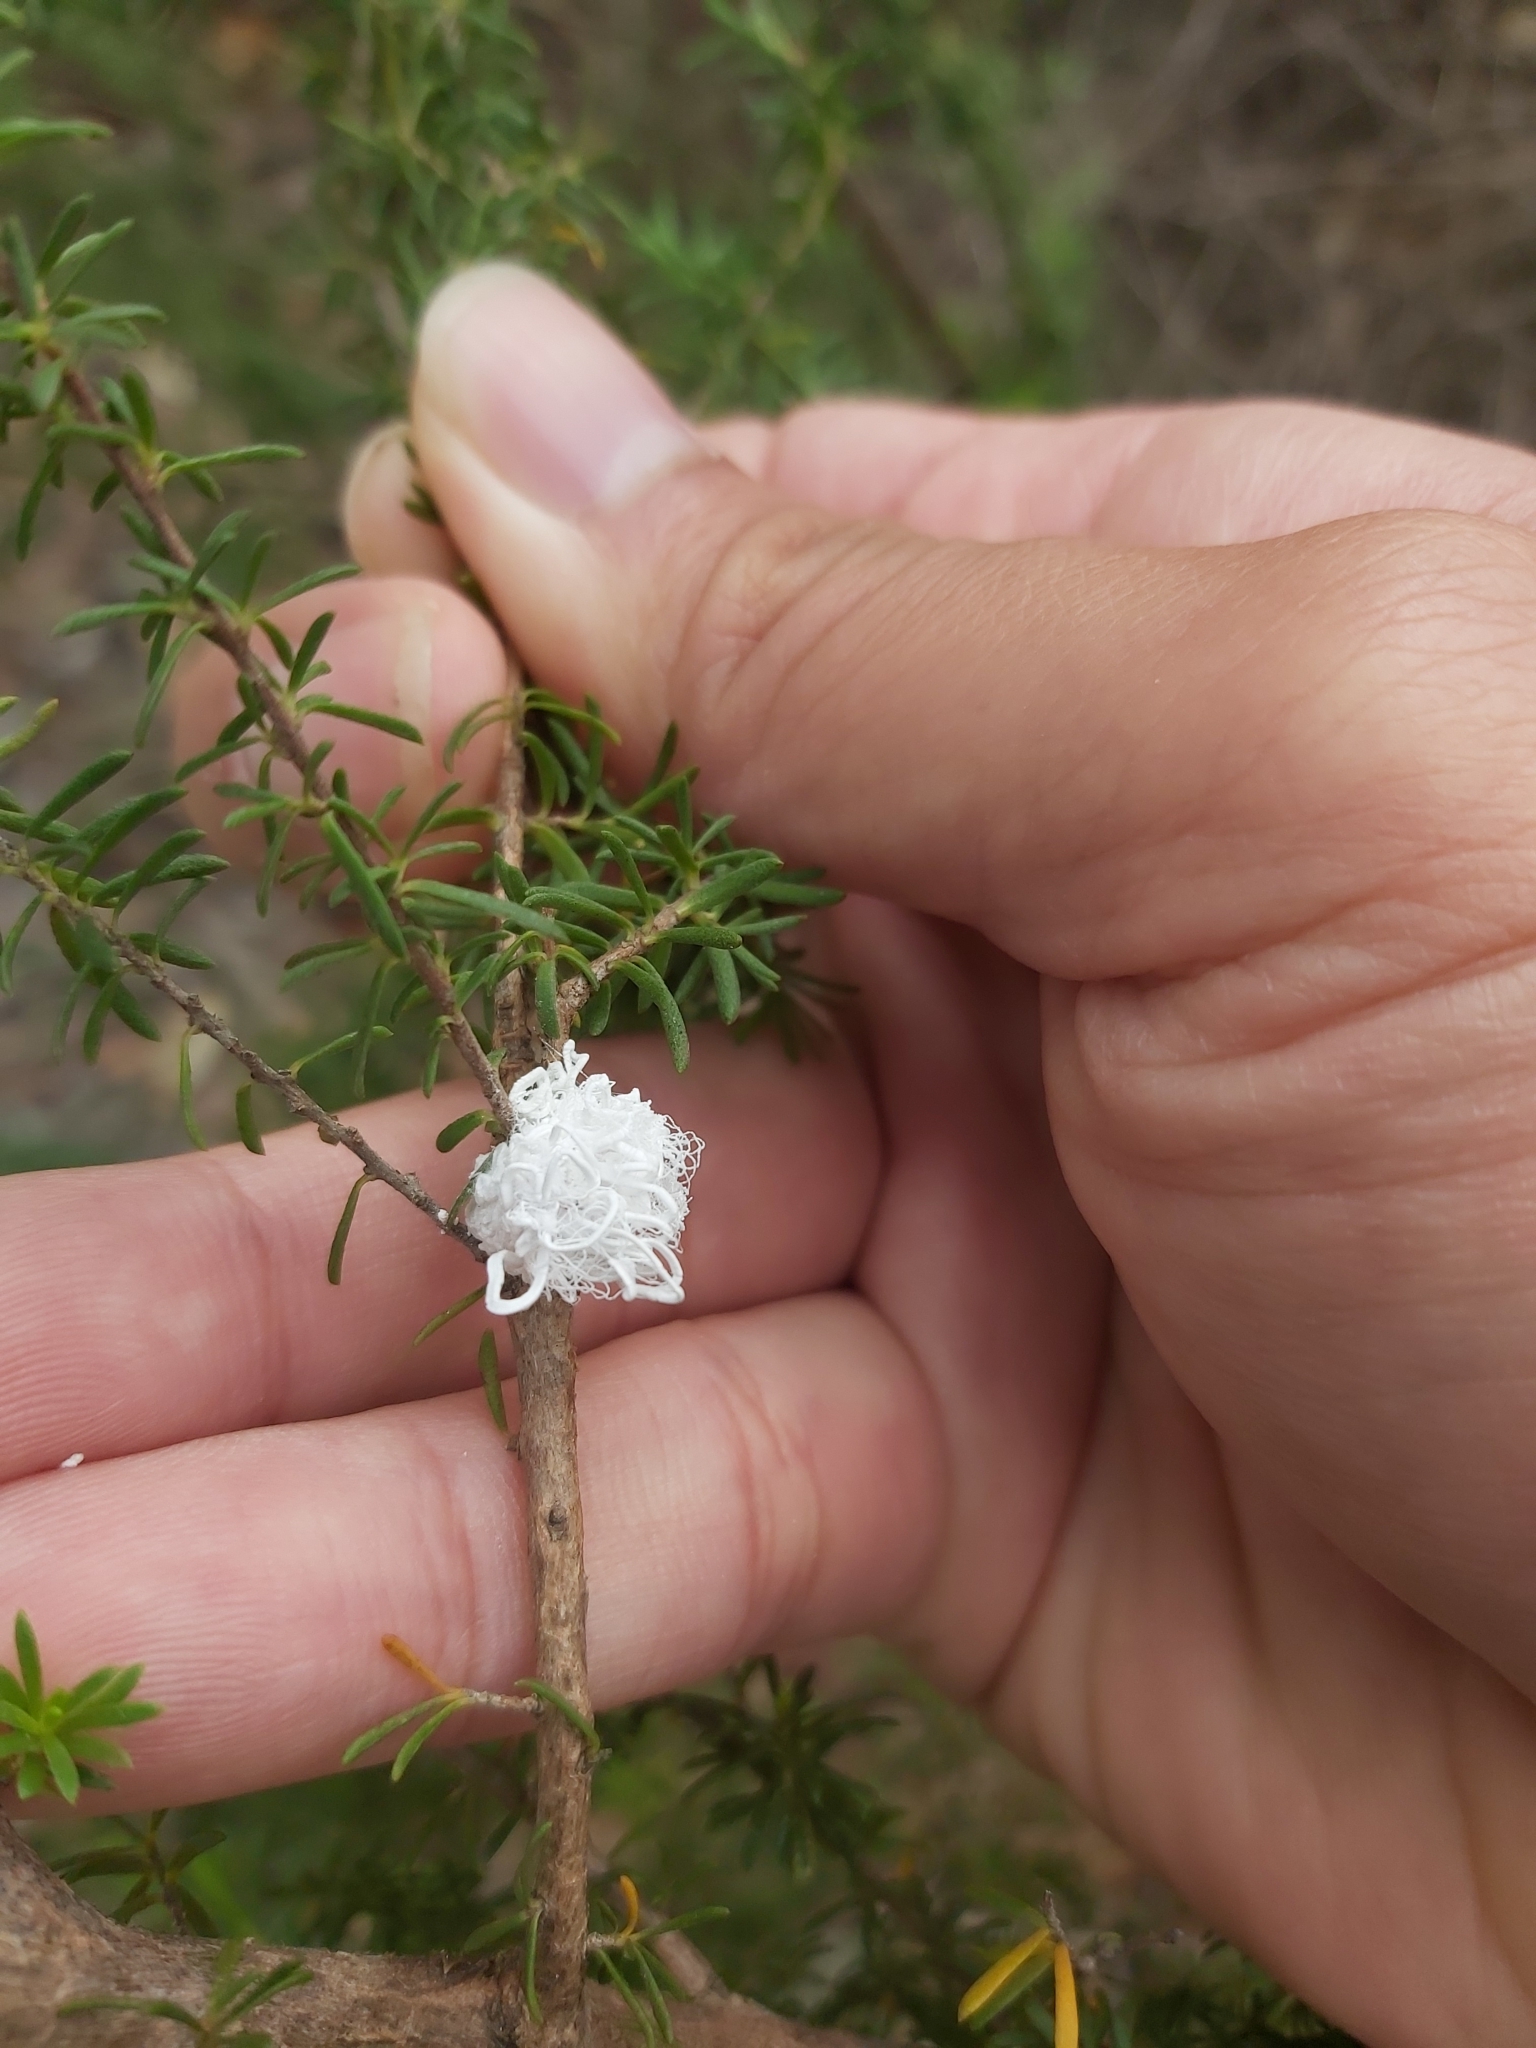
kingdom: Animalia
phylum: Arthropoda
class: Insecta
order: Hemiptera
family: Asterolecaniidae
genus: Callococcus
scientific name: Callococcus
